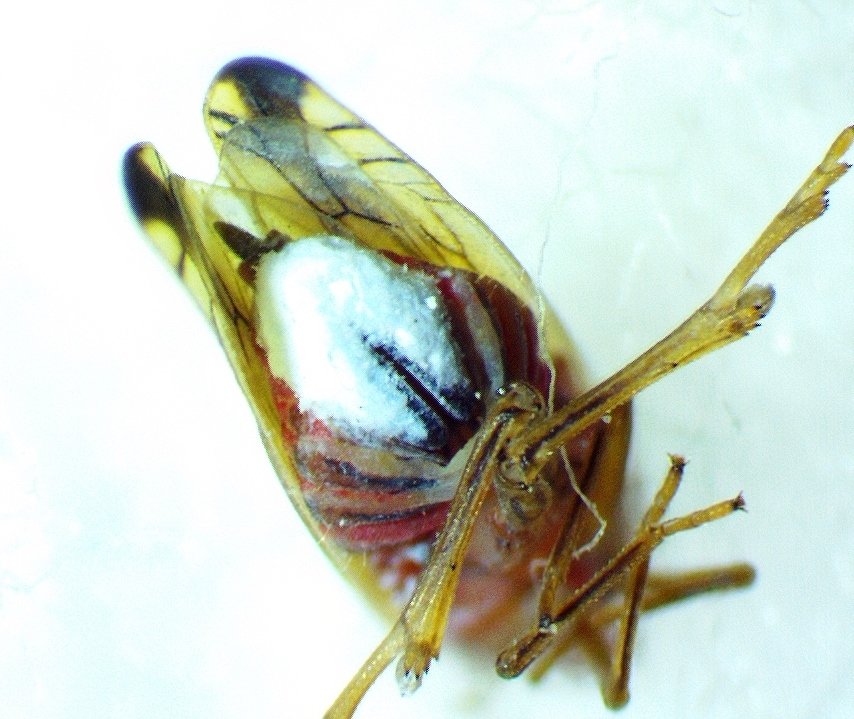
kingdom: Animalia
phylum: Arthropoda
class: Insecta
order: Hemiptera
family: Delphacidae
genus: Stenocranus
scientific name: Stenocranus brunneus
